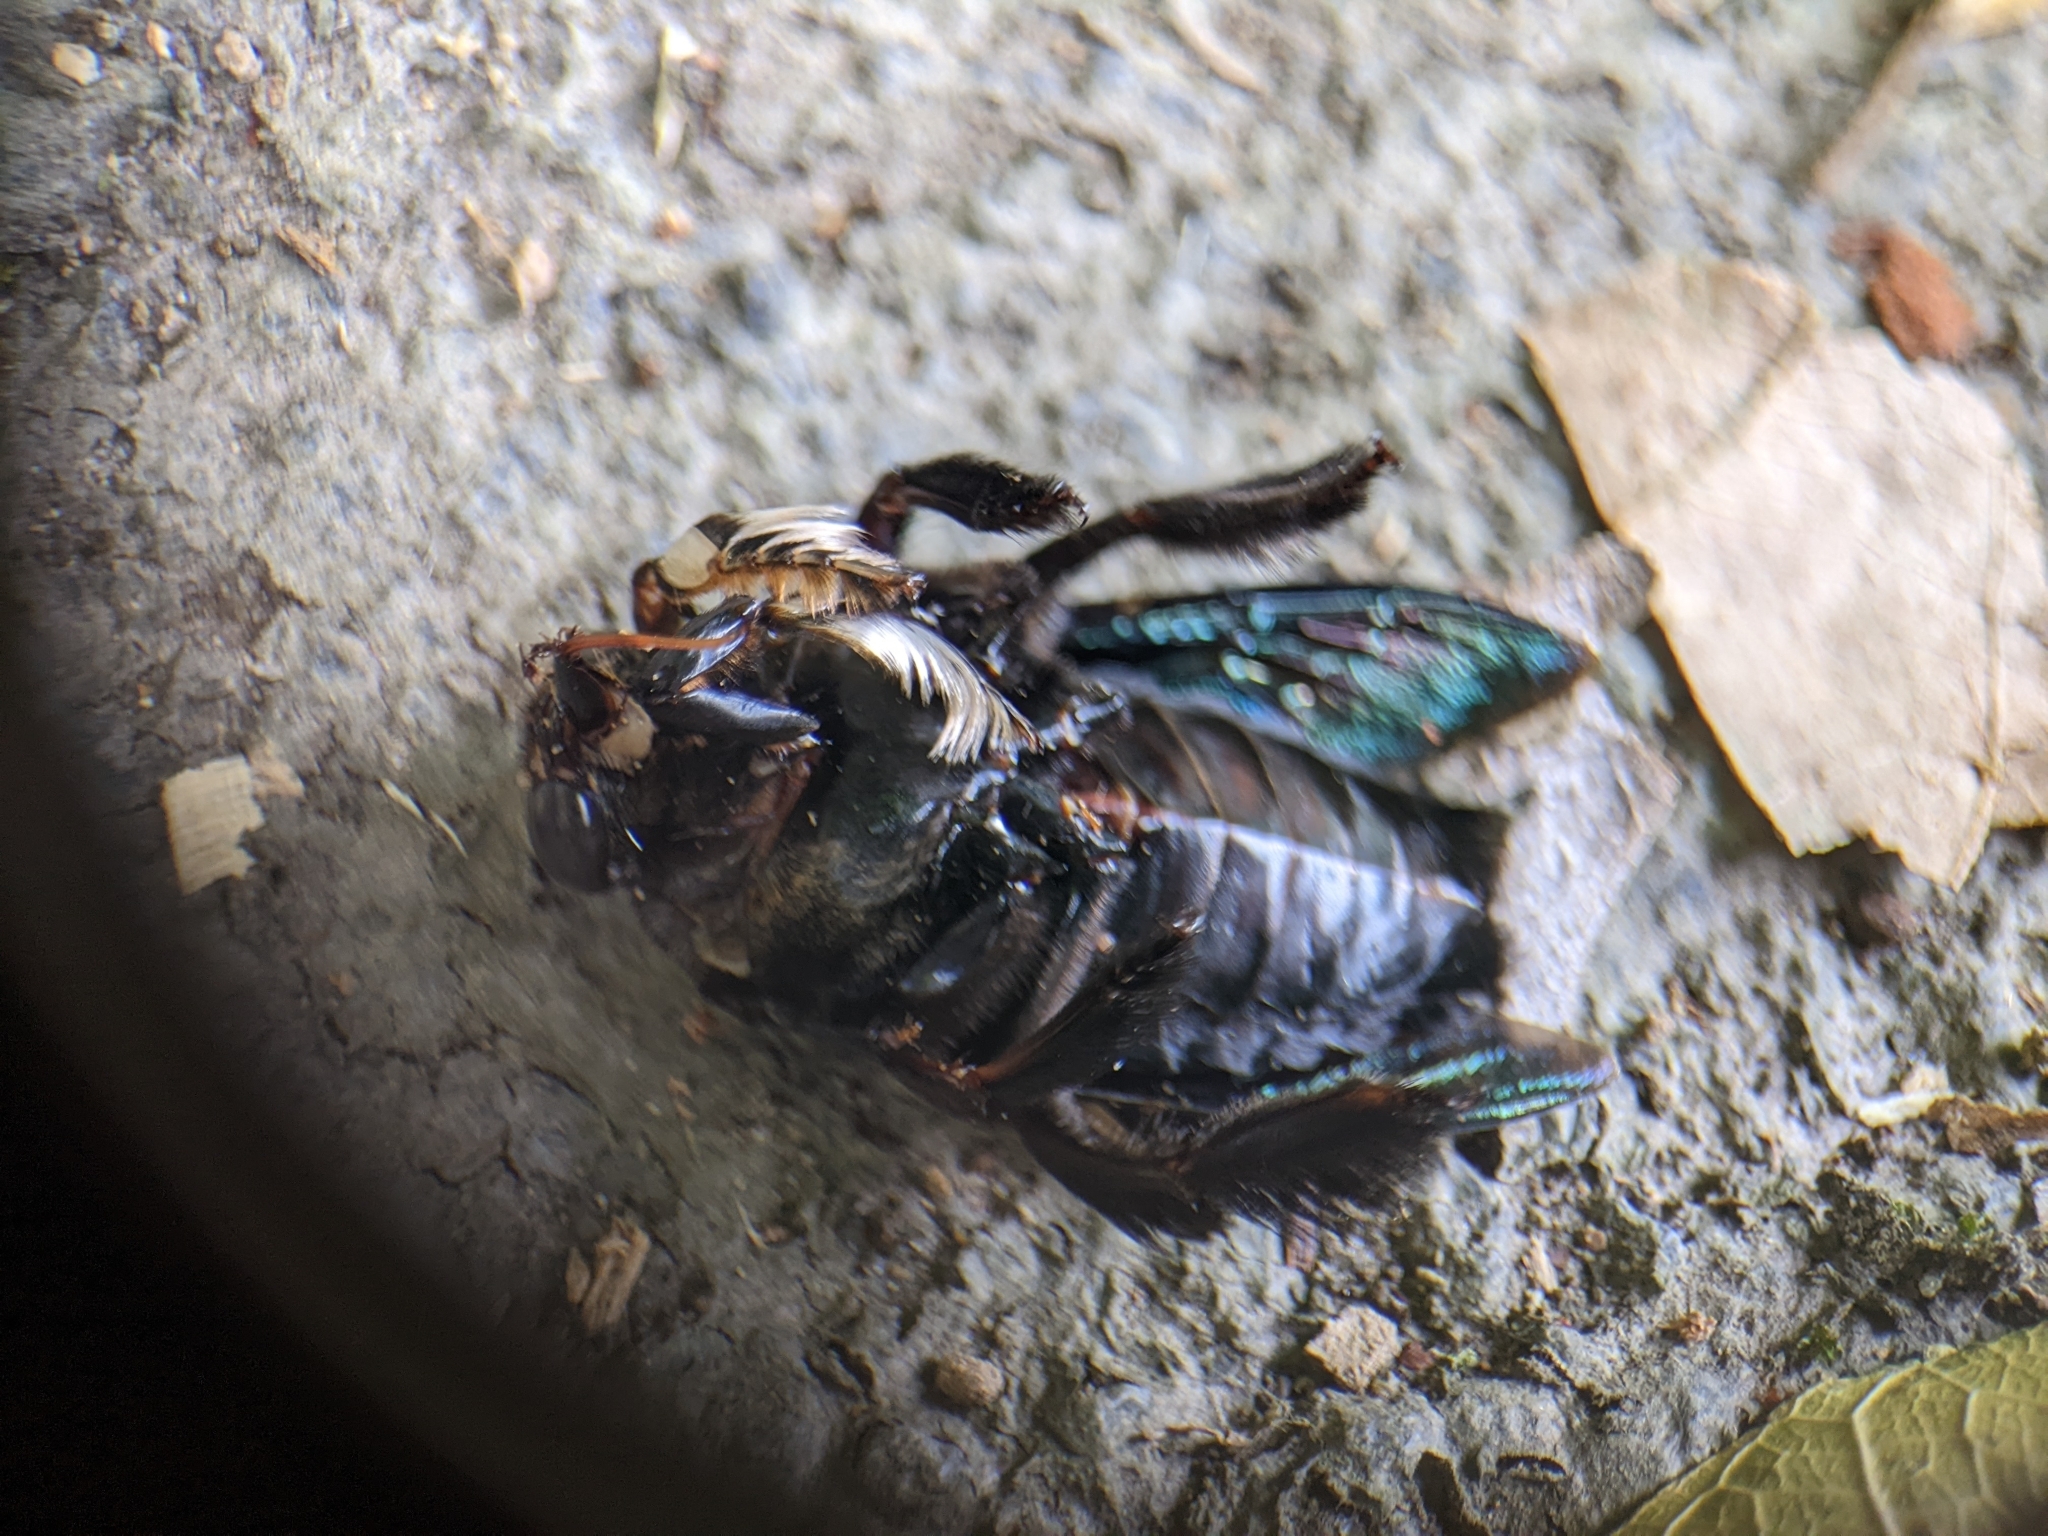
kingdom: Animalia
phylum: Arthropoda
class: Insecta
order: Hymenoptera
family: Apidae
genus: Xylocopa
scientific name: Xylocopa latipes
